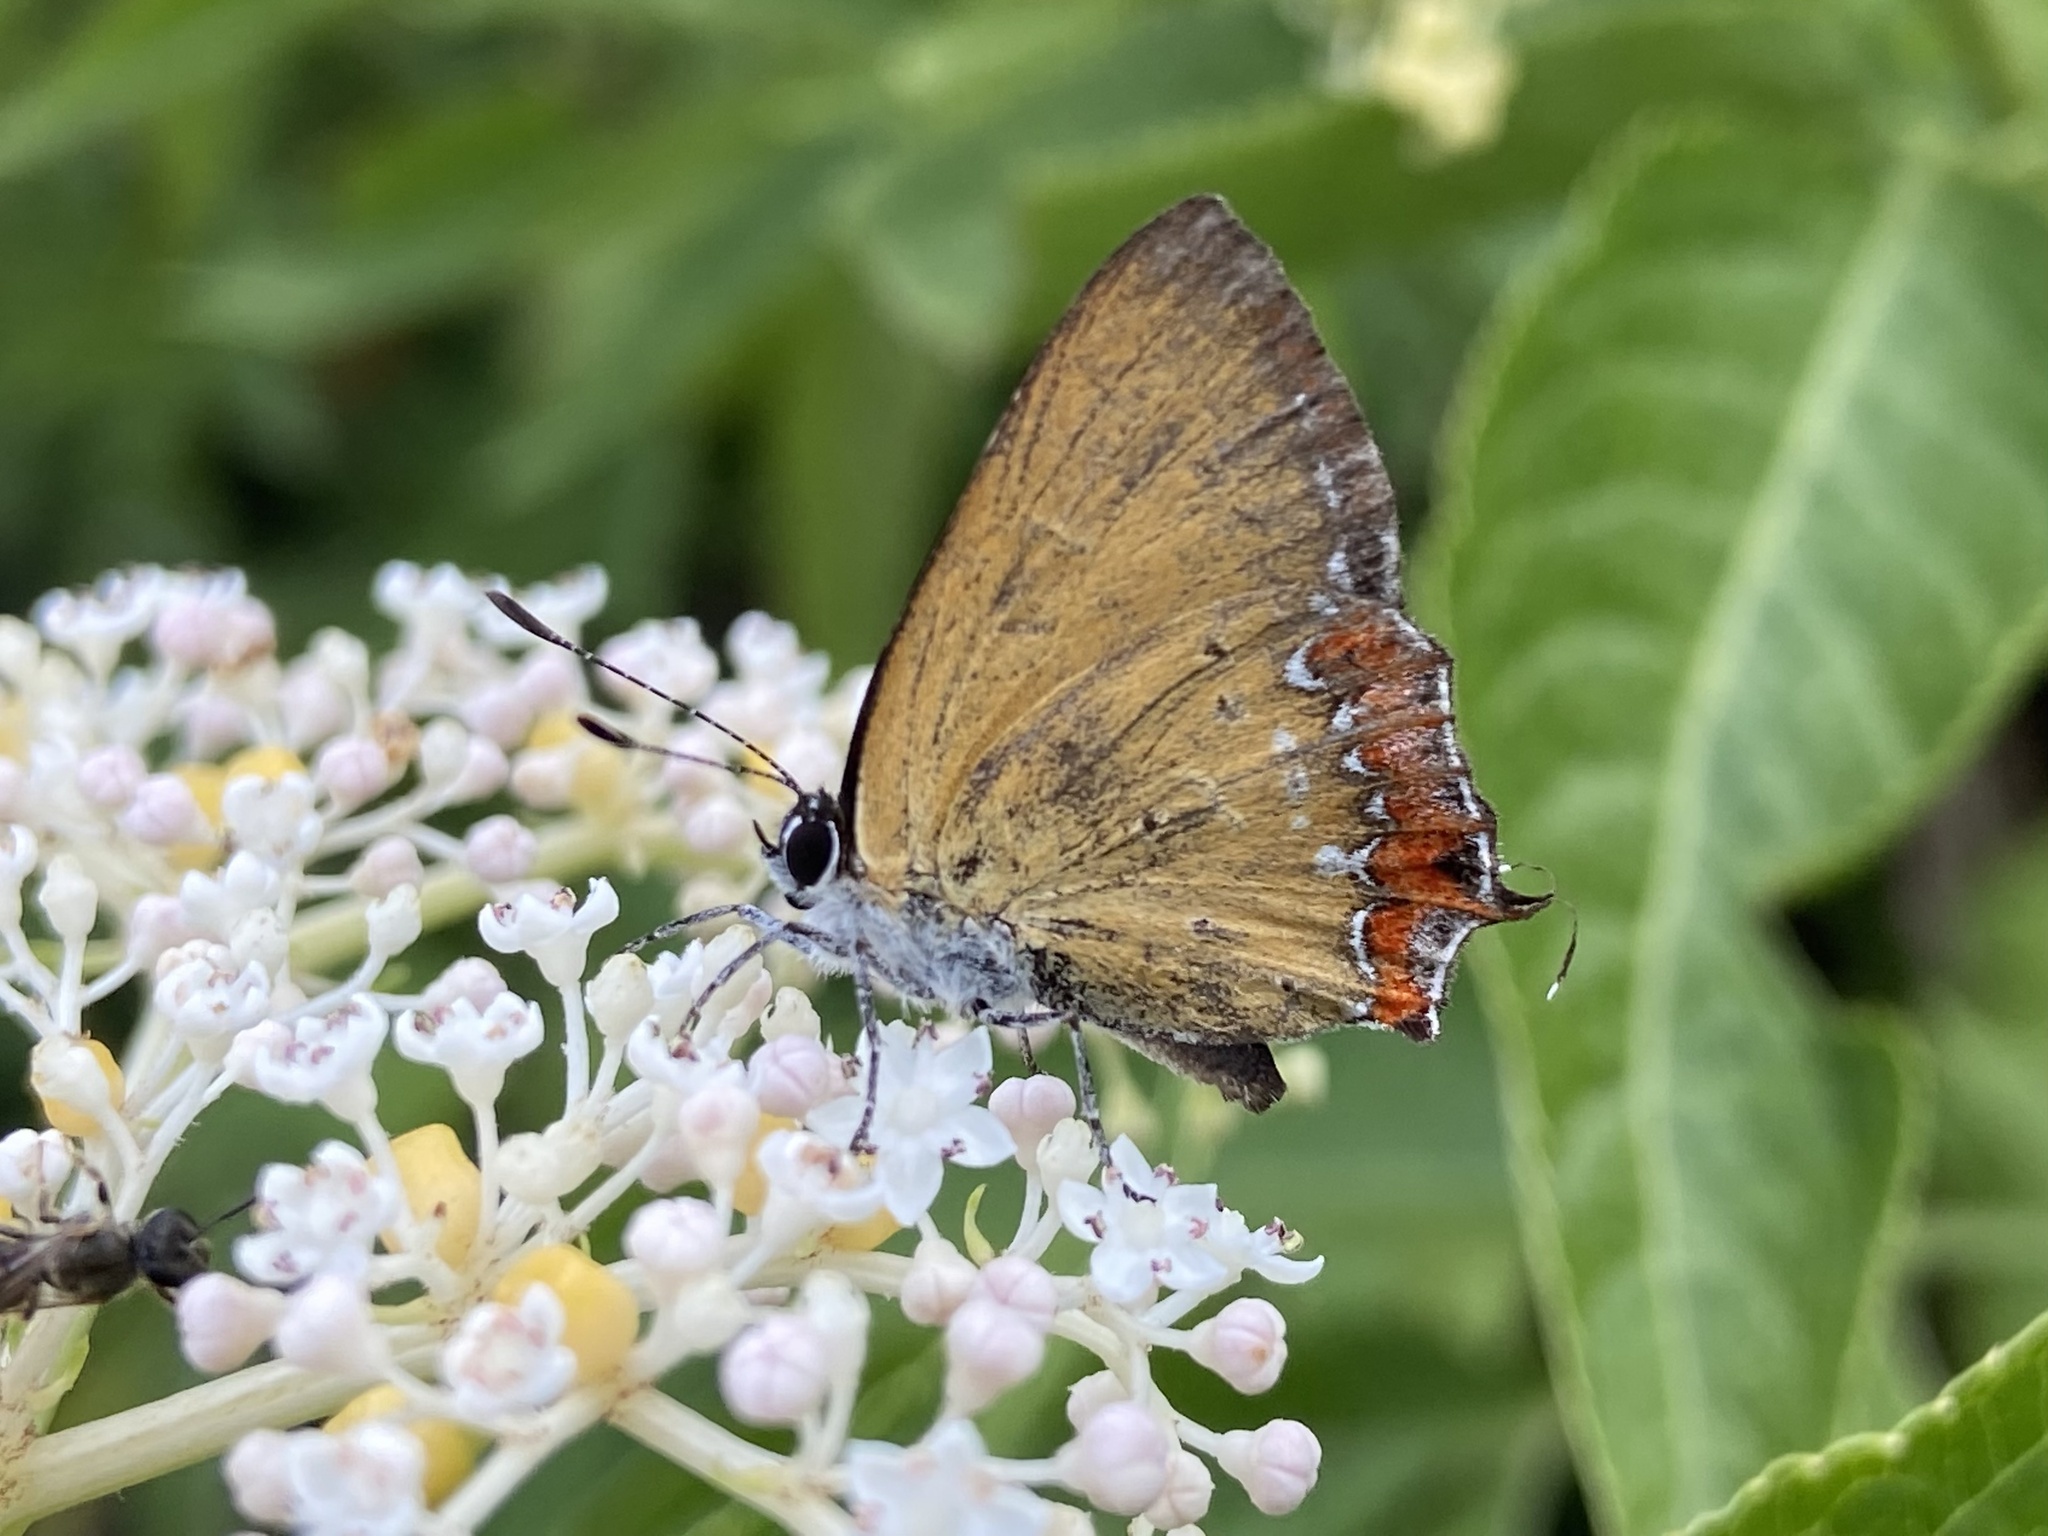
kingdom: Animalia
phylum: Arthropoda
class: Insecta
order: Lepidoptera
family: Lycaenidae
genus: Heliophorus
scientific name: Heliophorus ila
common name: Restricted purple sapphire
